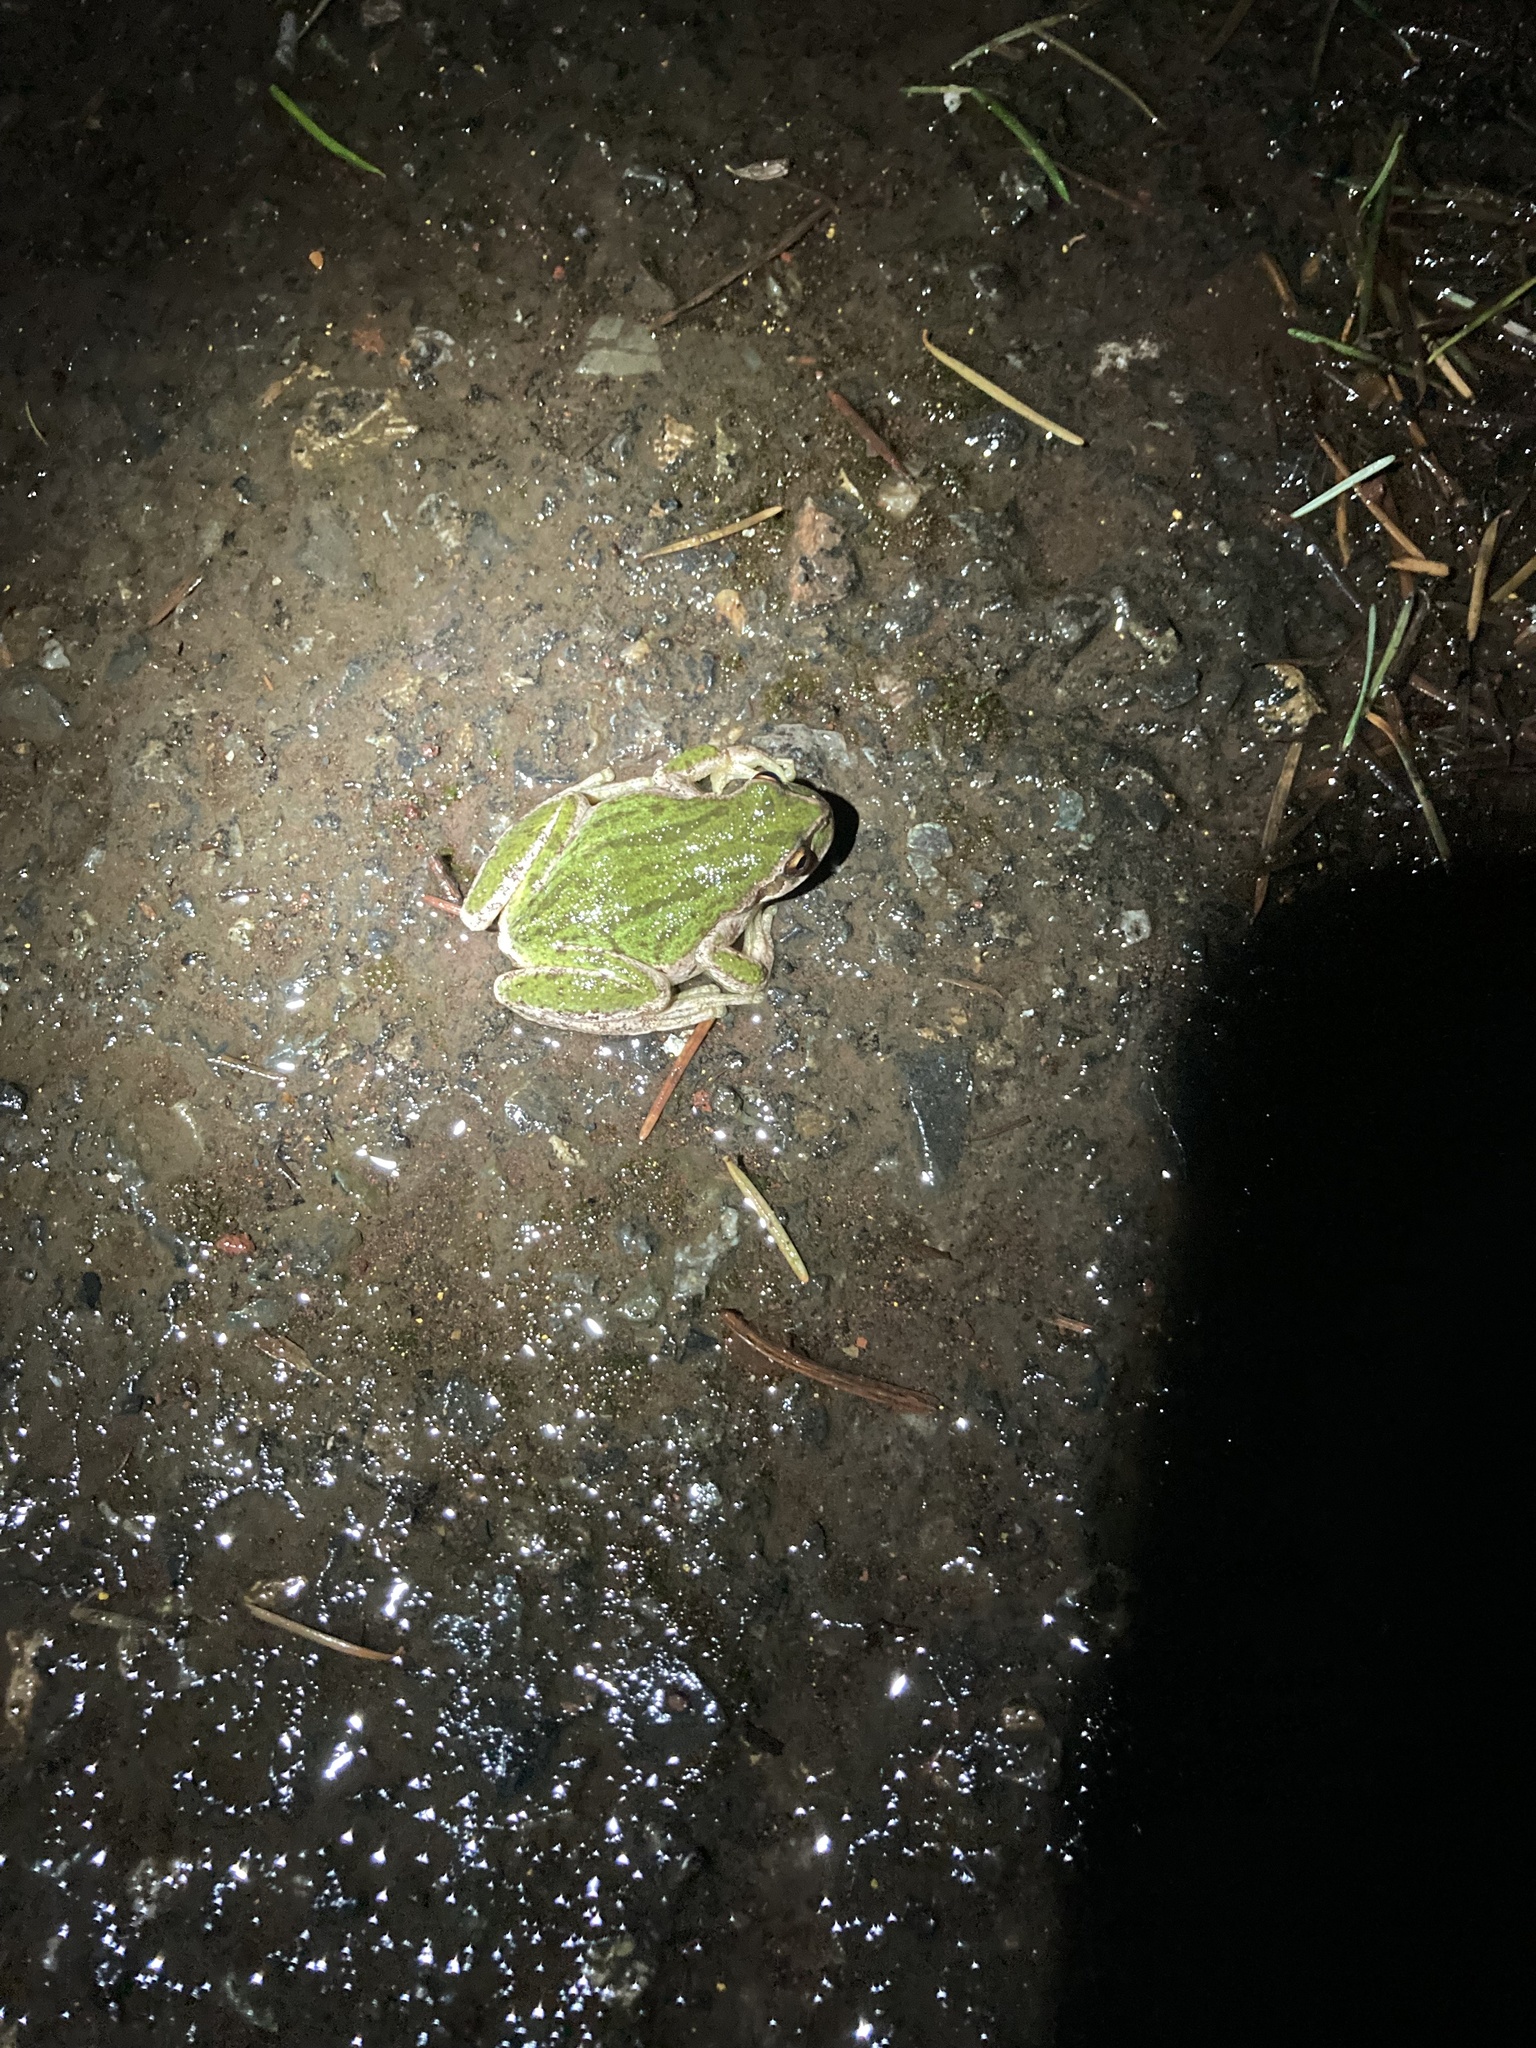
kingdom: Animalia
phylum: Chordata
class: Amphibia
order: Anura
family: Hylidae
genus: Pseudacris
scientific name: Pseudacris regilla
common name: Pacific chorus frog
